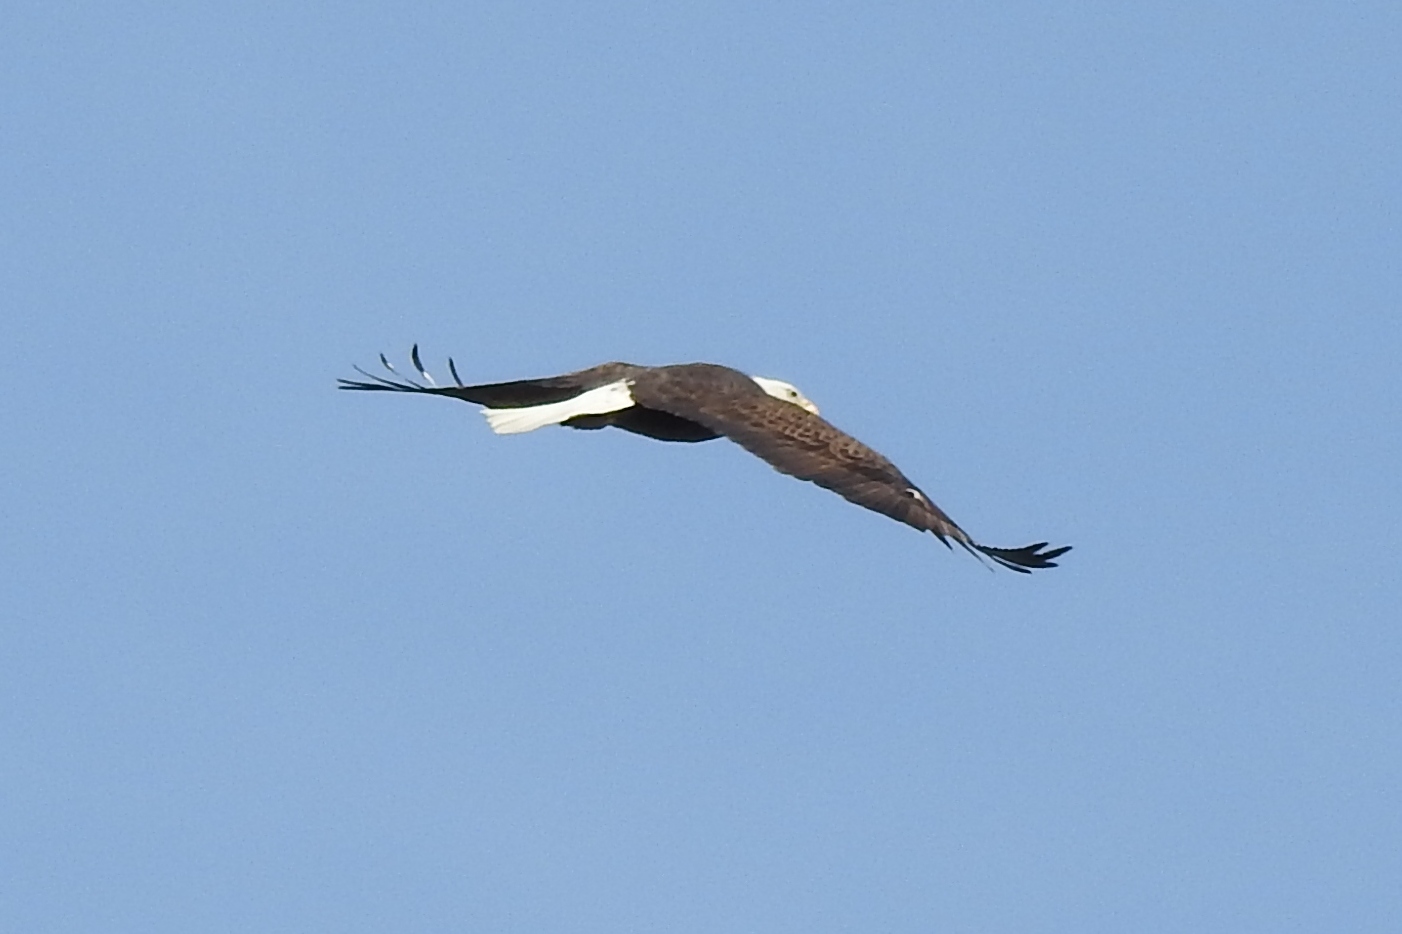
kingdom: Animalia
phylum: Chordata
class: Aves
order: Accipitriformes
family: Accipitridae
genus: Haliaeetus
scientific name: Haliaeetus leucocephalus
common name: Bald eagle
